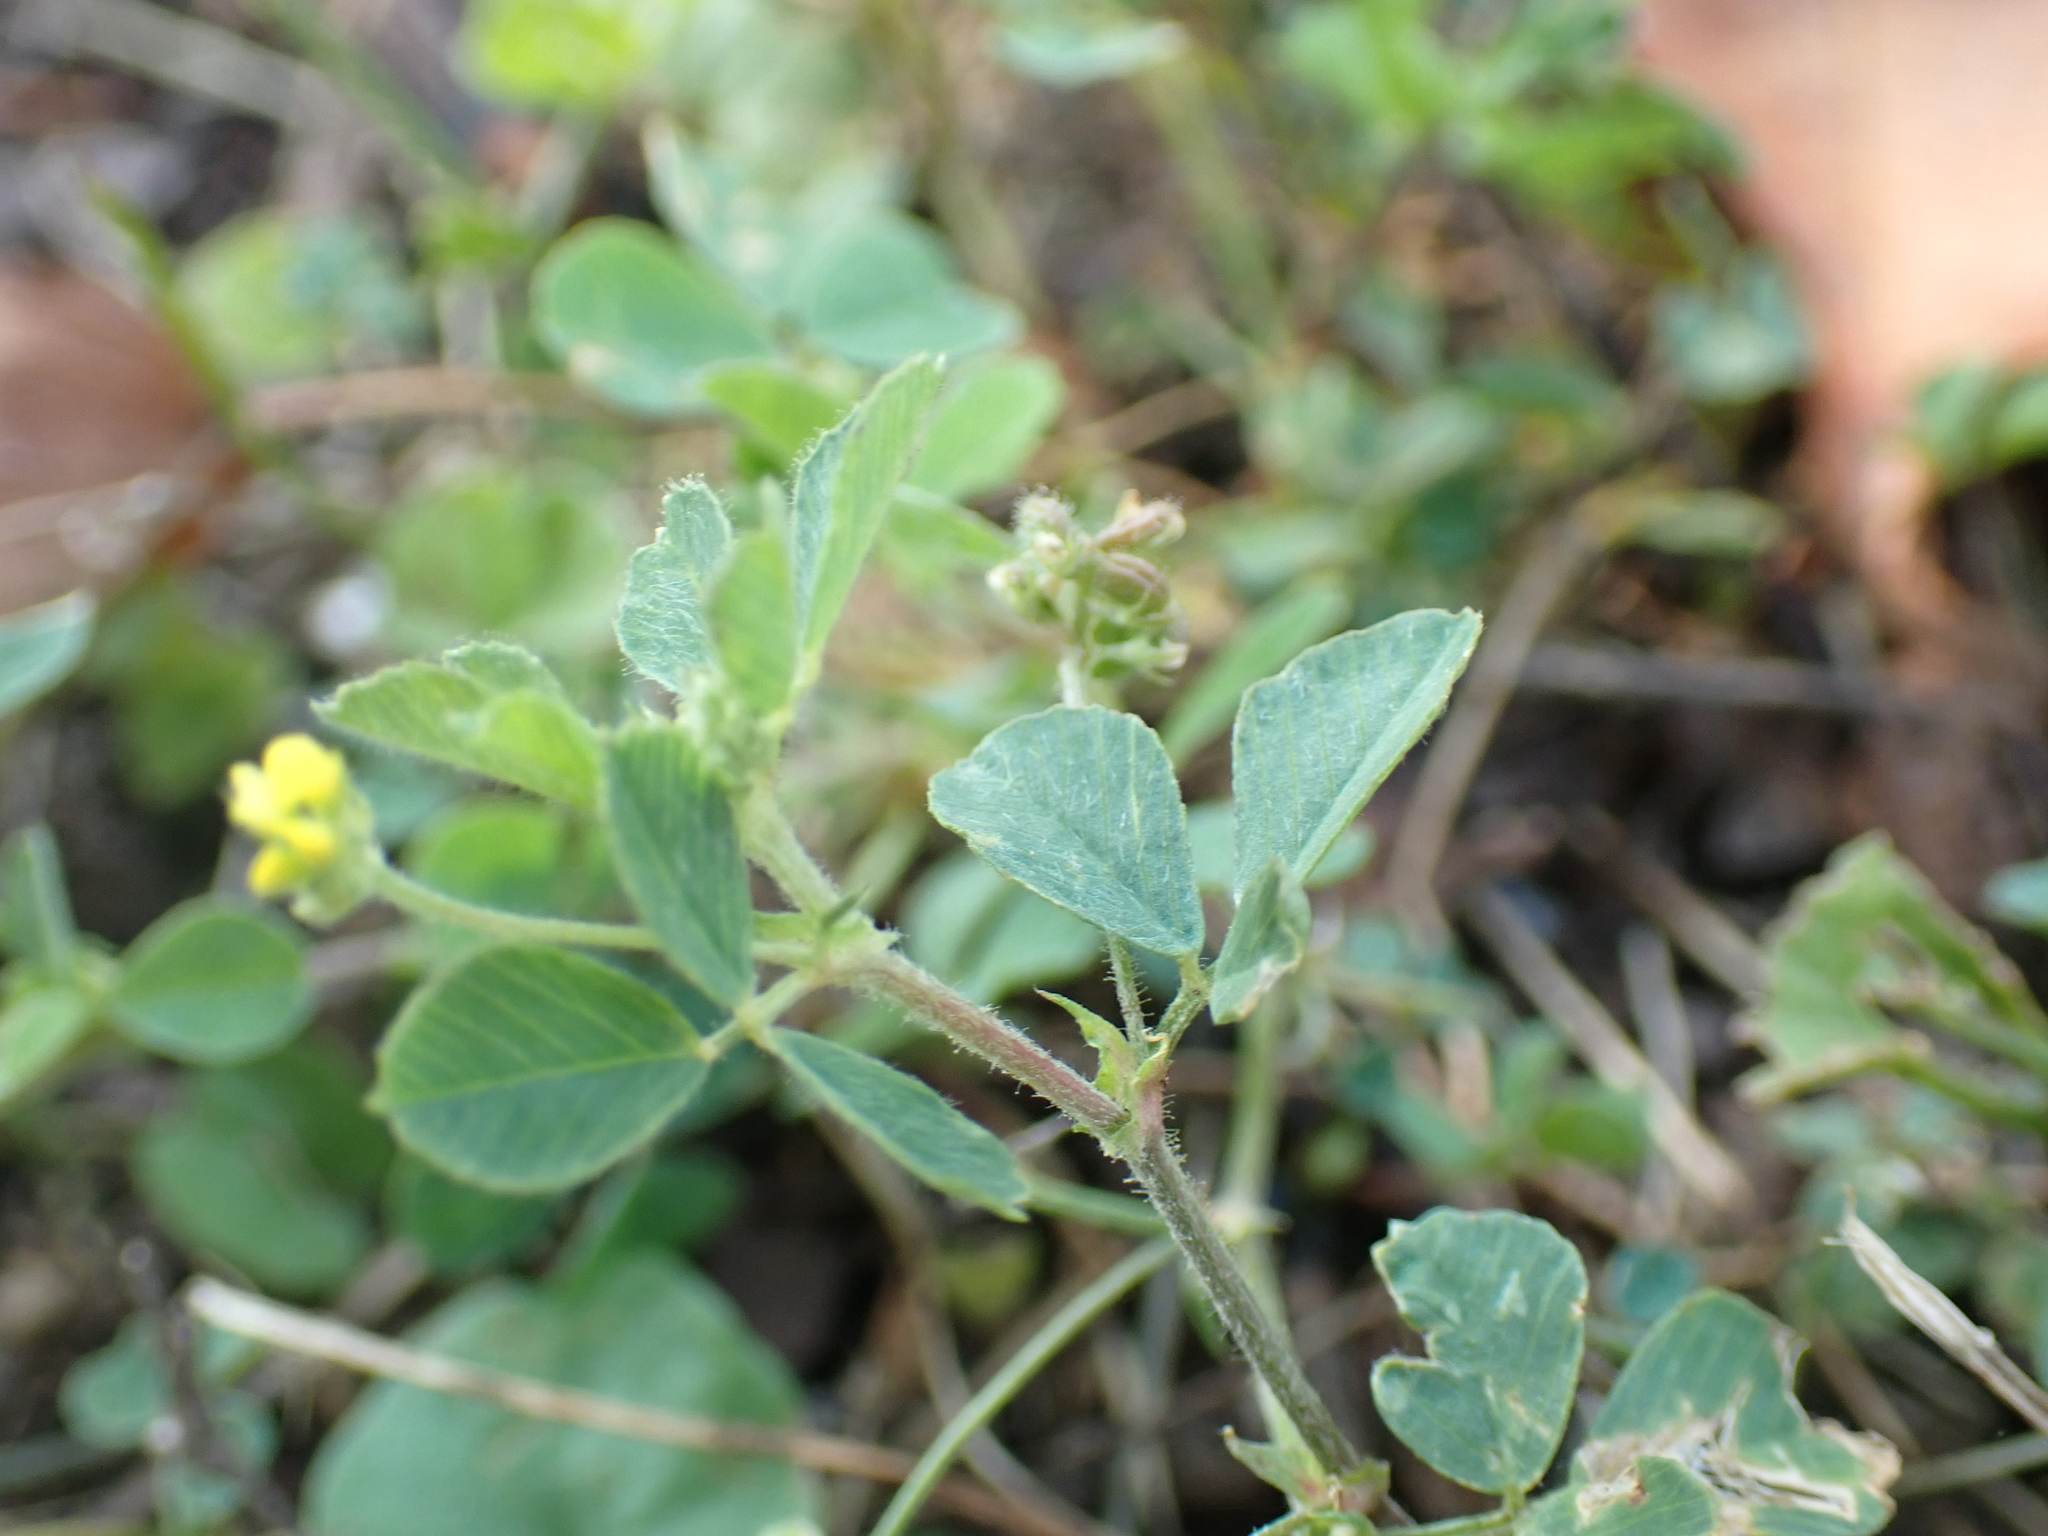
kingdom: Plantae
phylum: Tracheophyta
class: Magnoliopsida
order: Fabales
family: Fabaceae
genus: Medicago
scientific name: Medicago lupulina
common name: Black medick
